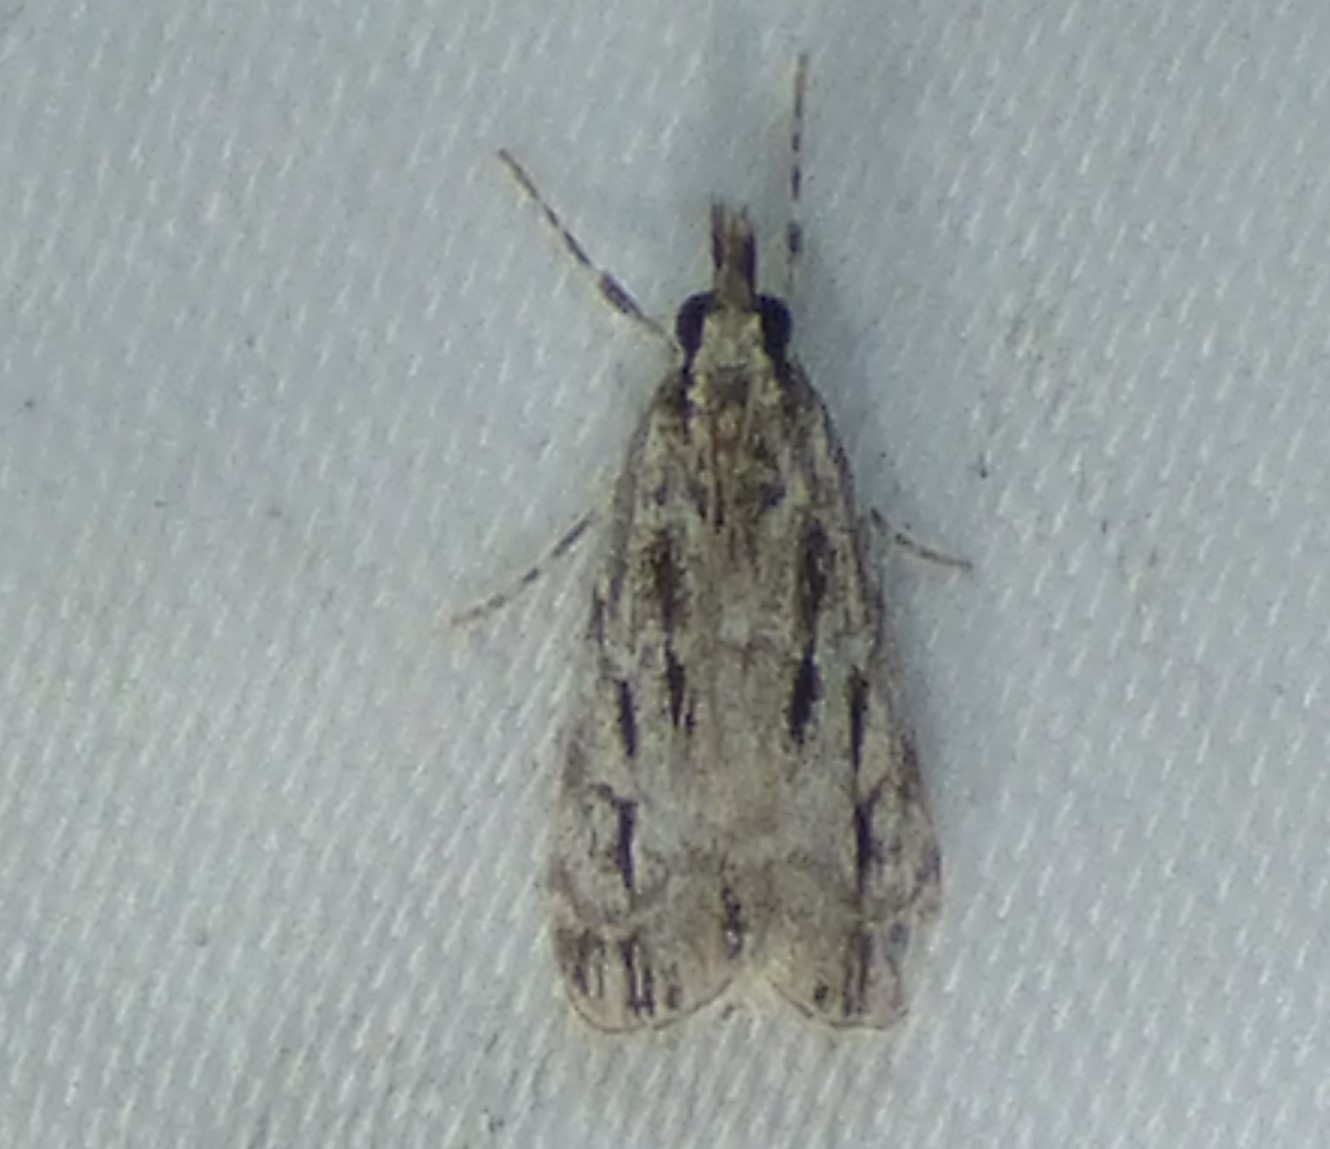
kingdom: Animalia
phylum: Arthropoda
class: Insecta
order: Lepidoptera
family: Crambidae
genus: Eudonia
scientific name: Eudonia strigalis
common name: Striped eudonia moth
